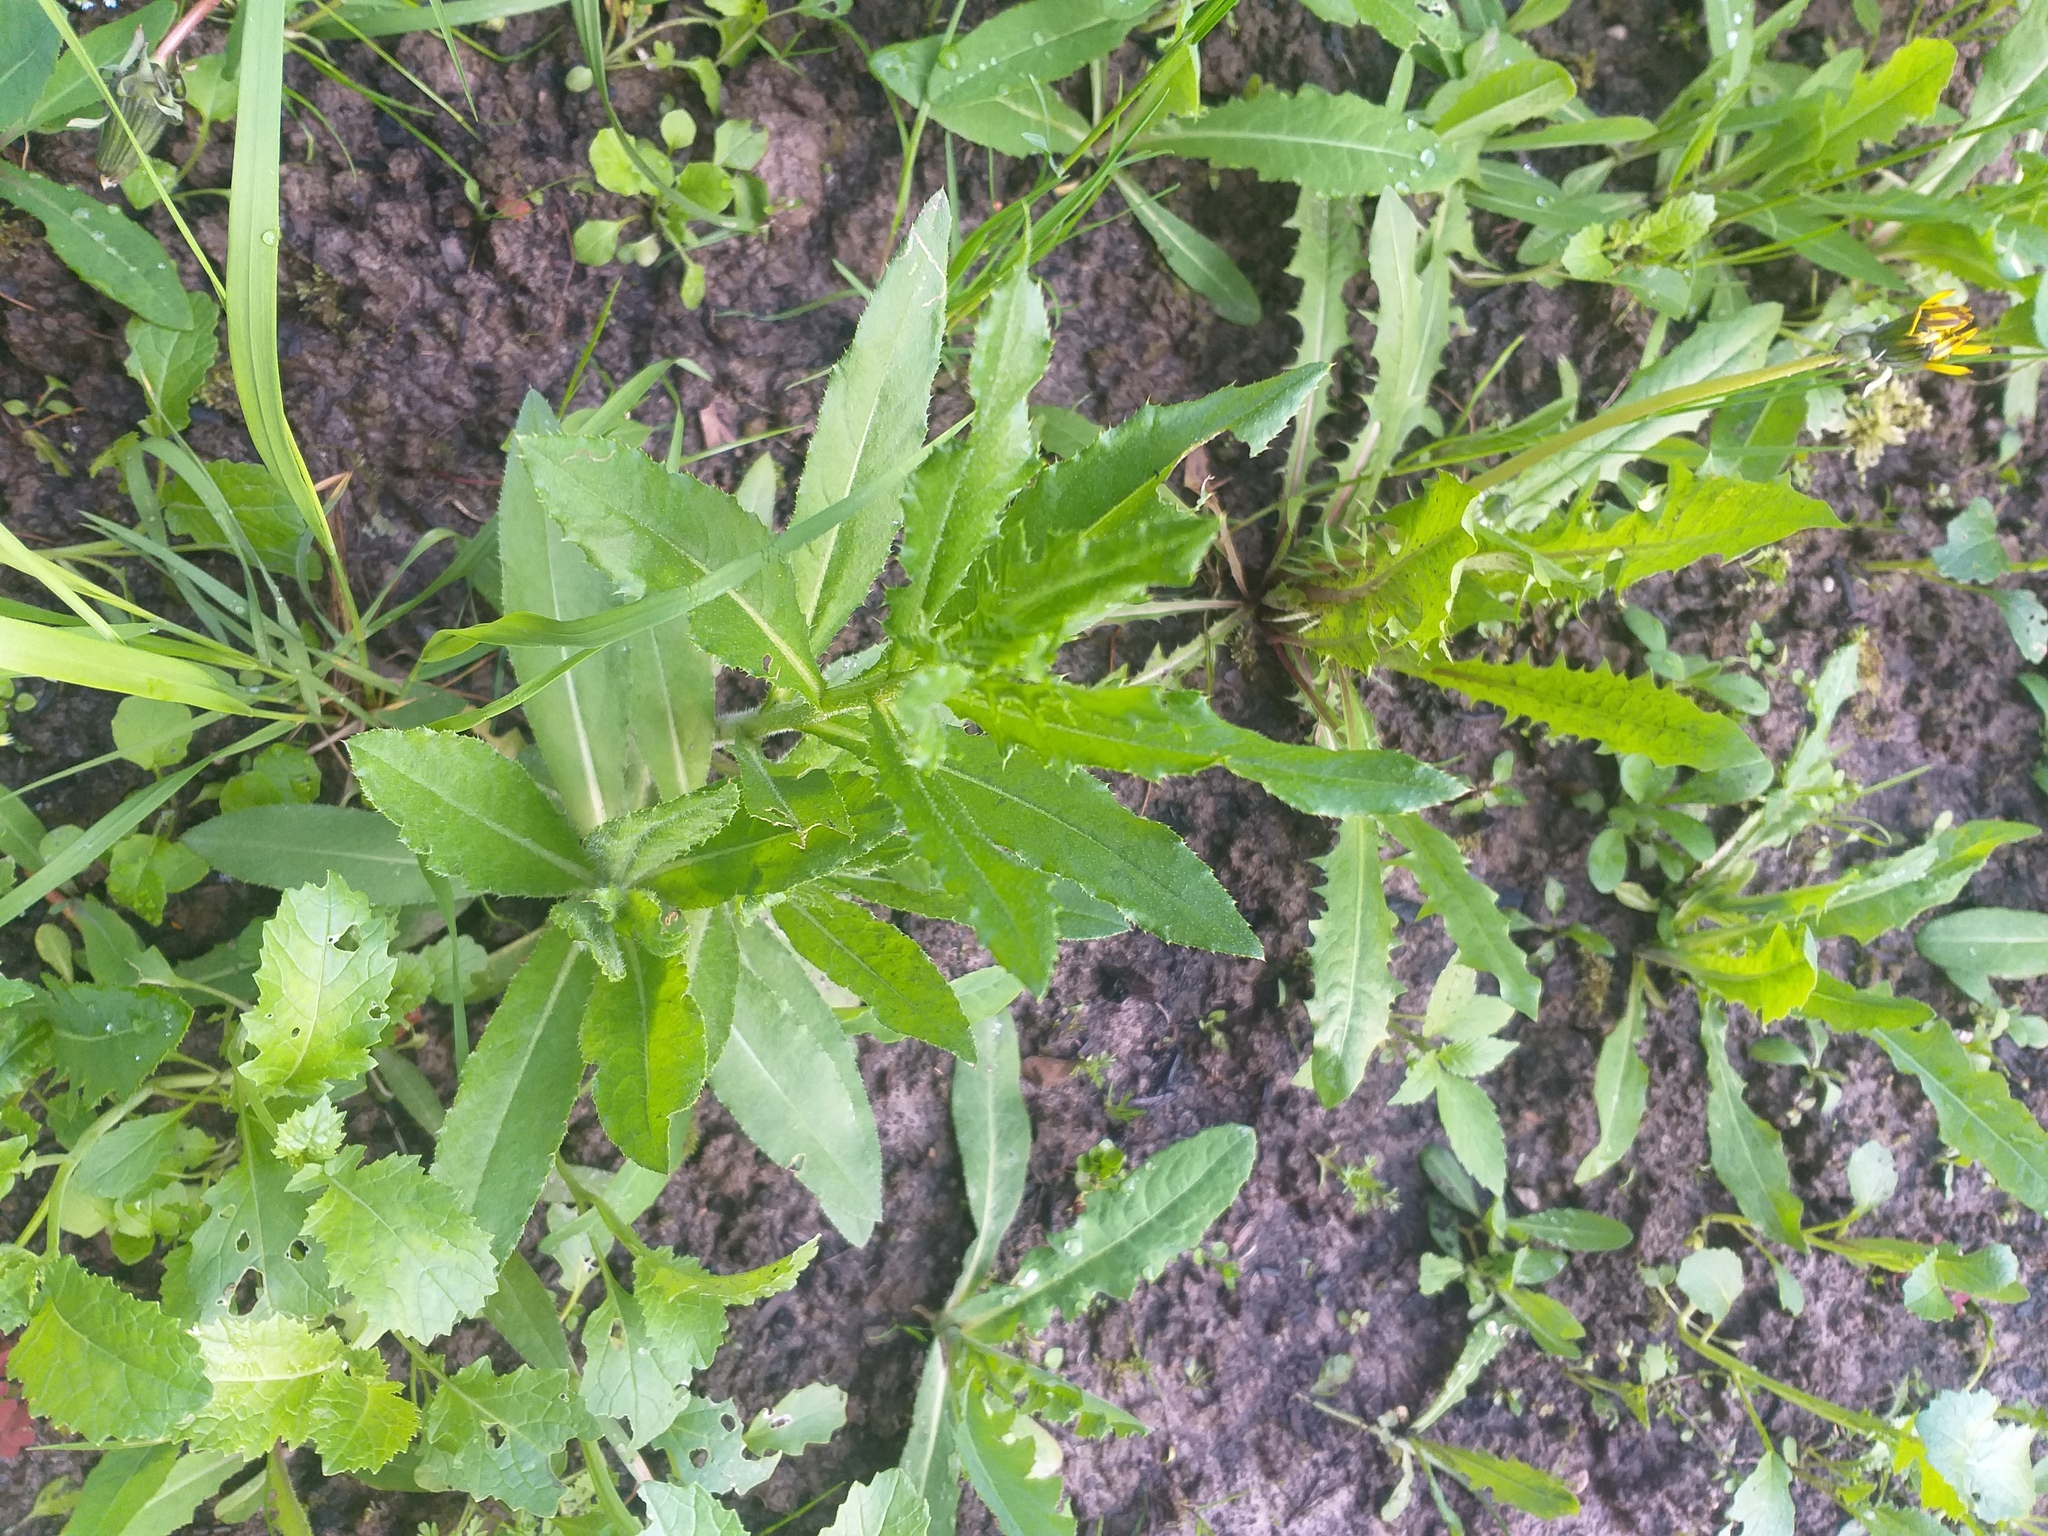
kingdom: Plantae
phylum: Tracheophyta
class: Magnoliopsida
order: Asterales
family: Asteraceae
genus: Cirsium
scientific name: Cirsium arvense
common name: Creeping thistle
